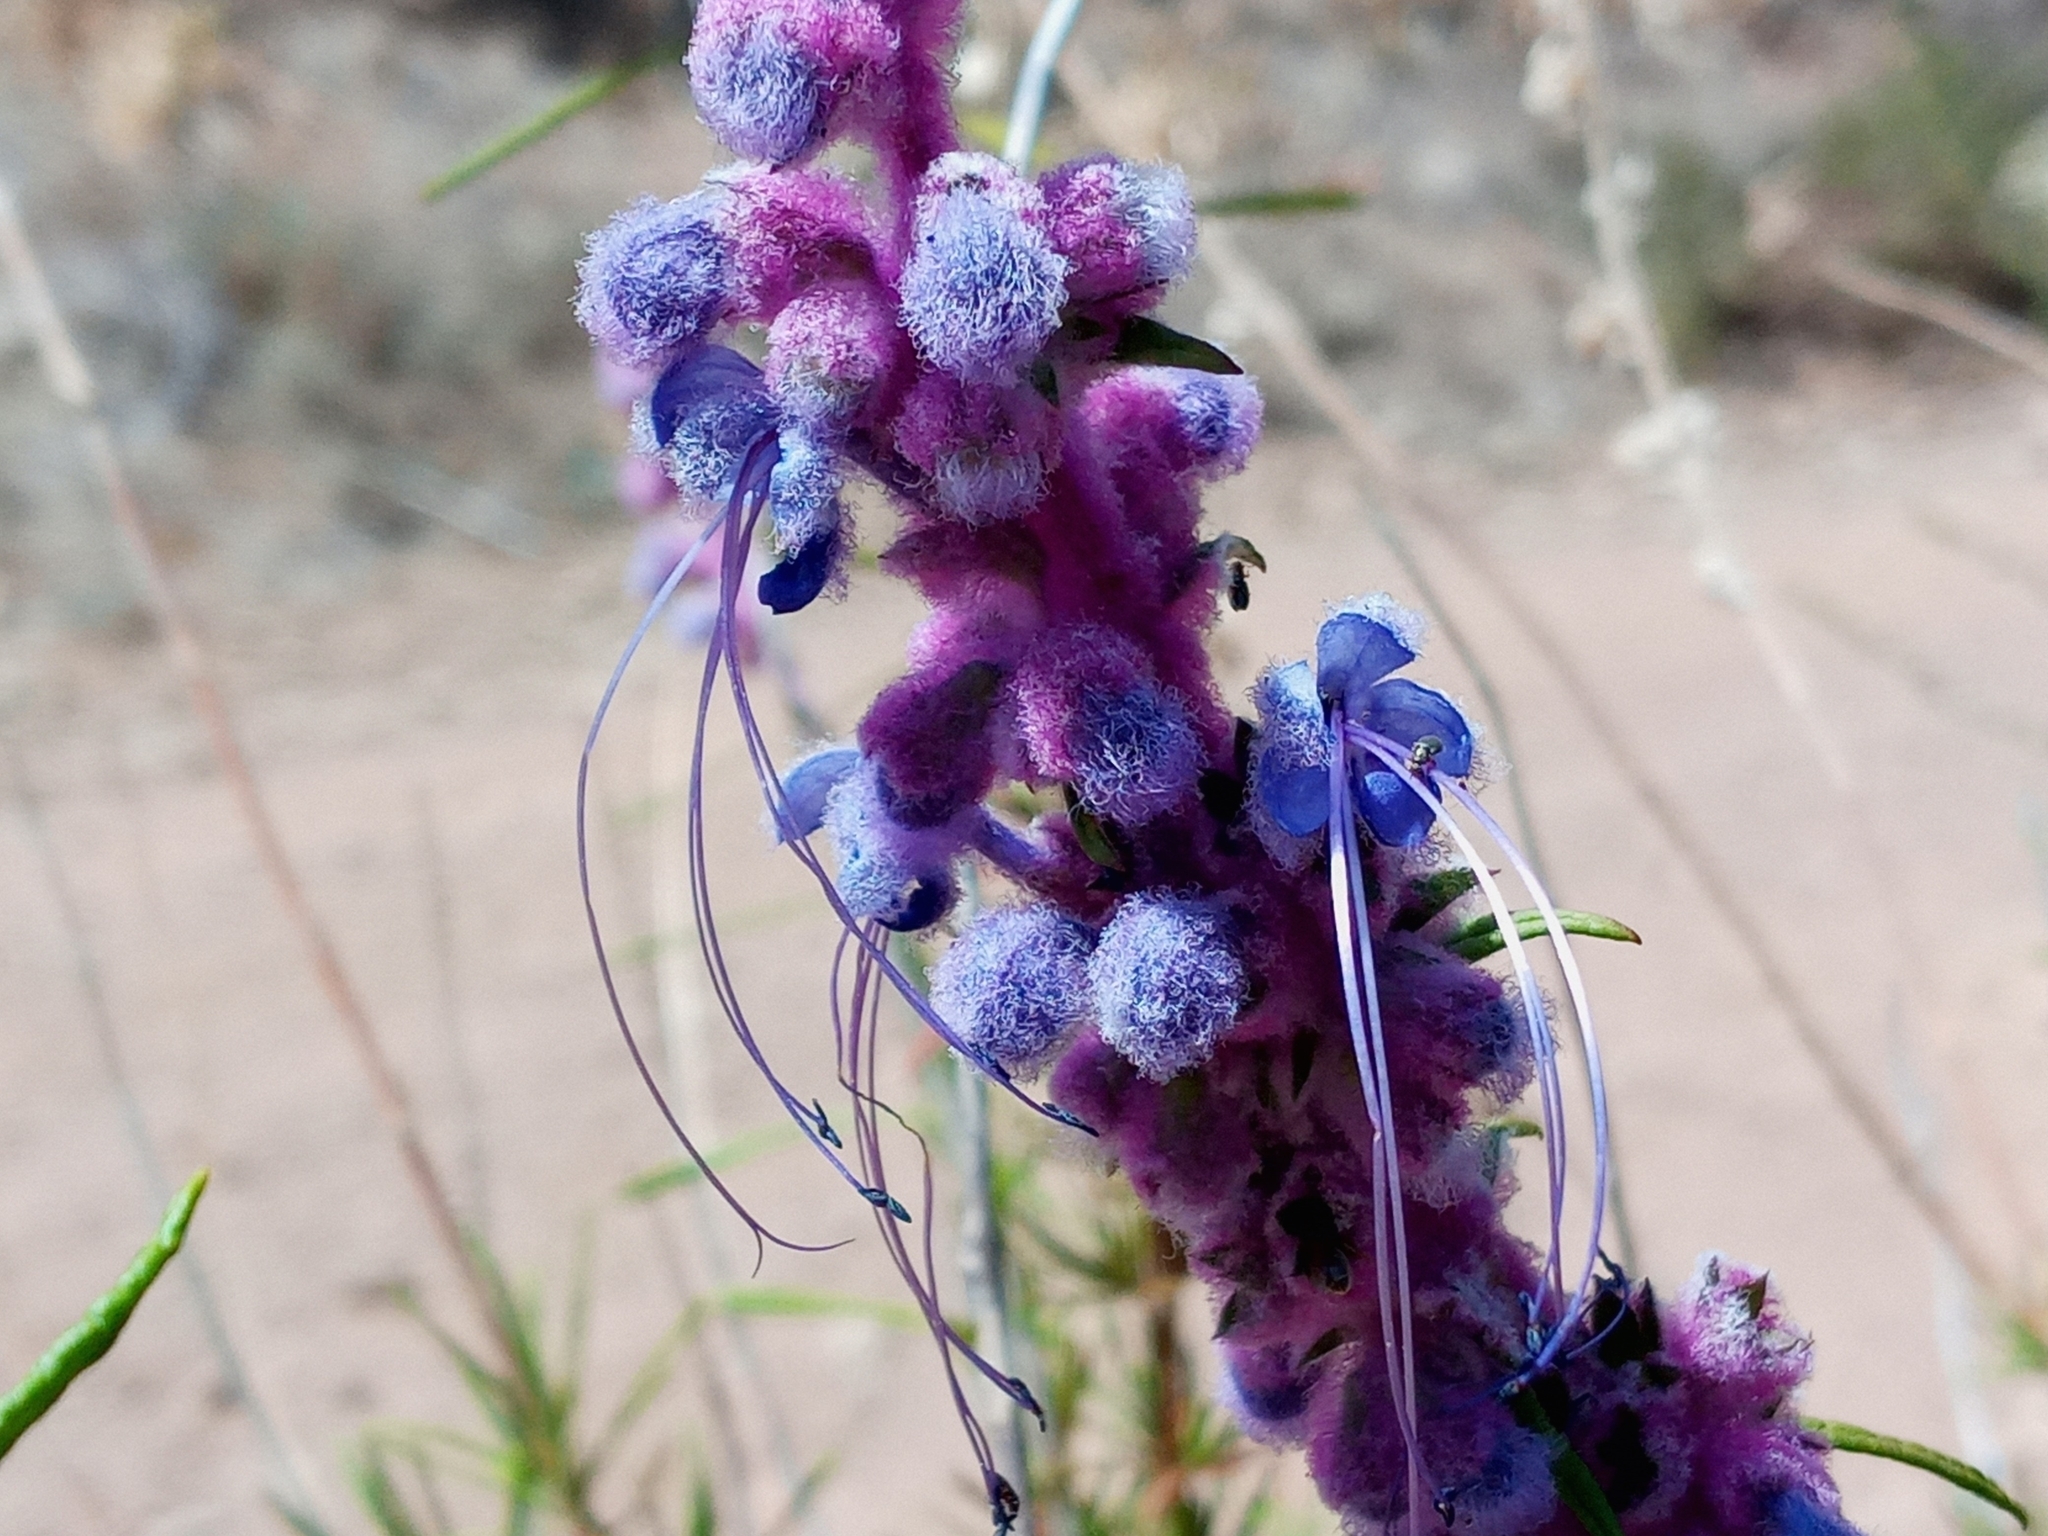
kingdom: Plantae
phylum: Tracheophyta
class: Magnoliopsida
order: Lamiales
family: Lamiaceae
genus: Trichostema
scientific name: Trichostema lanatum
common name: Woolly bluecurls
